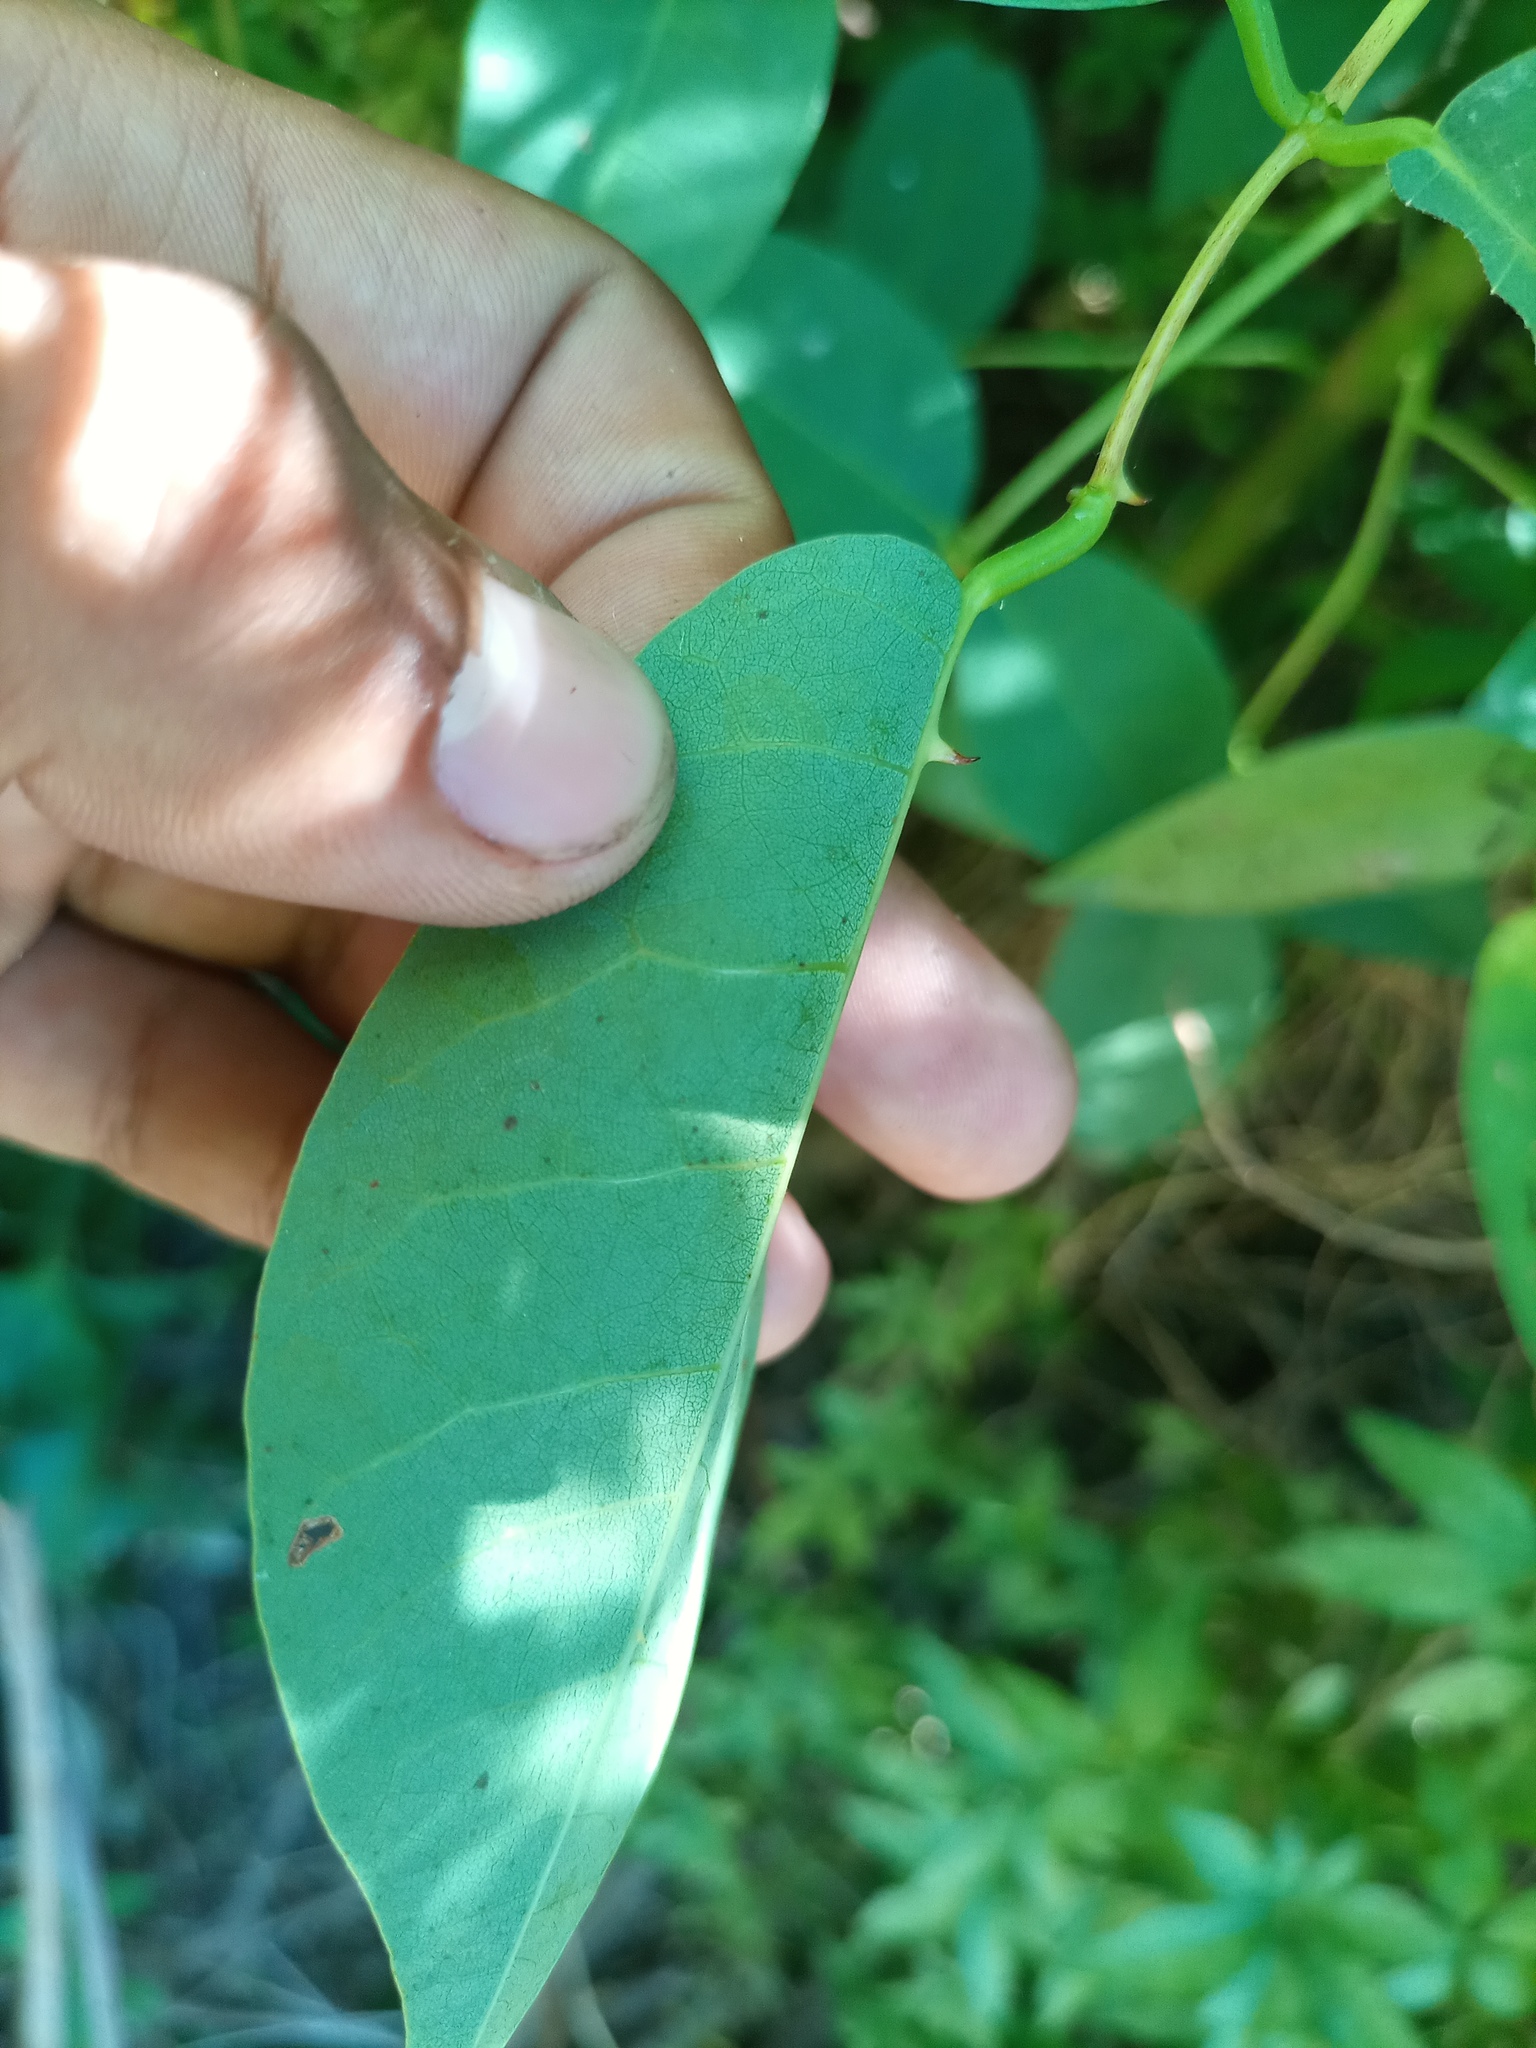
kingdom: Plantae
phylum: Tracheophyta
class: Magnoliopsida
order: Fabales
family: Fabaceae
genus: Erythrina
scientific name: Erythrina crista-galli
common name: Cockspur coral tree
